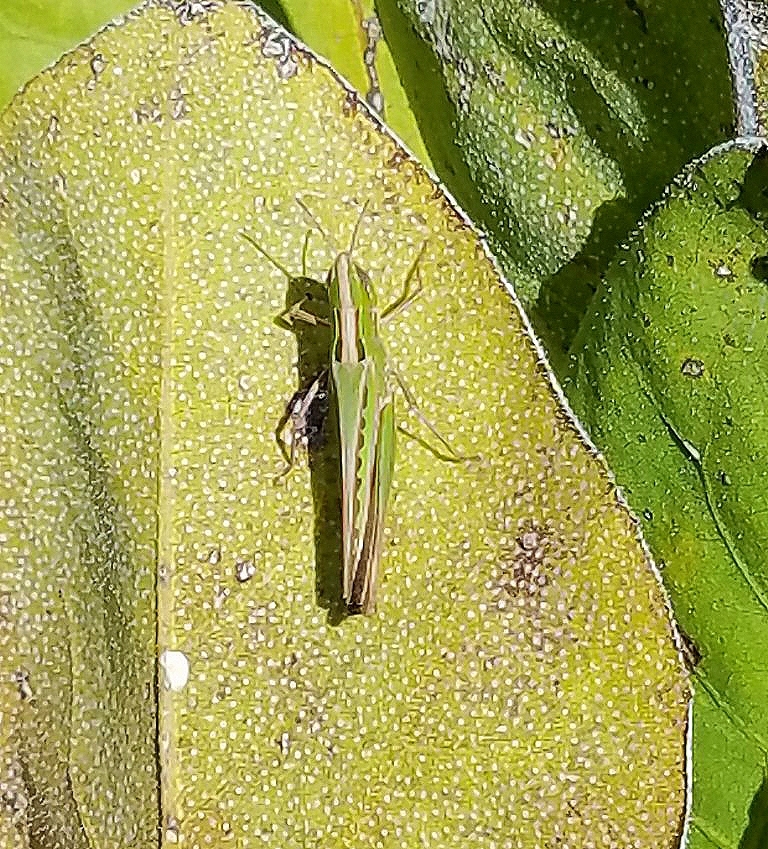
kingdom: Animalia
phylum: Arthropoda
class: Insecta
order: Orthoptera
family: Acrididae
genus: Syrbula
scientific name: Syrbula admirabilis
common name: Handsome grasshopper
